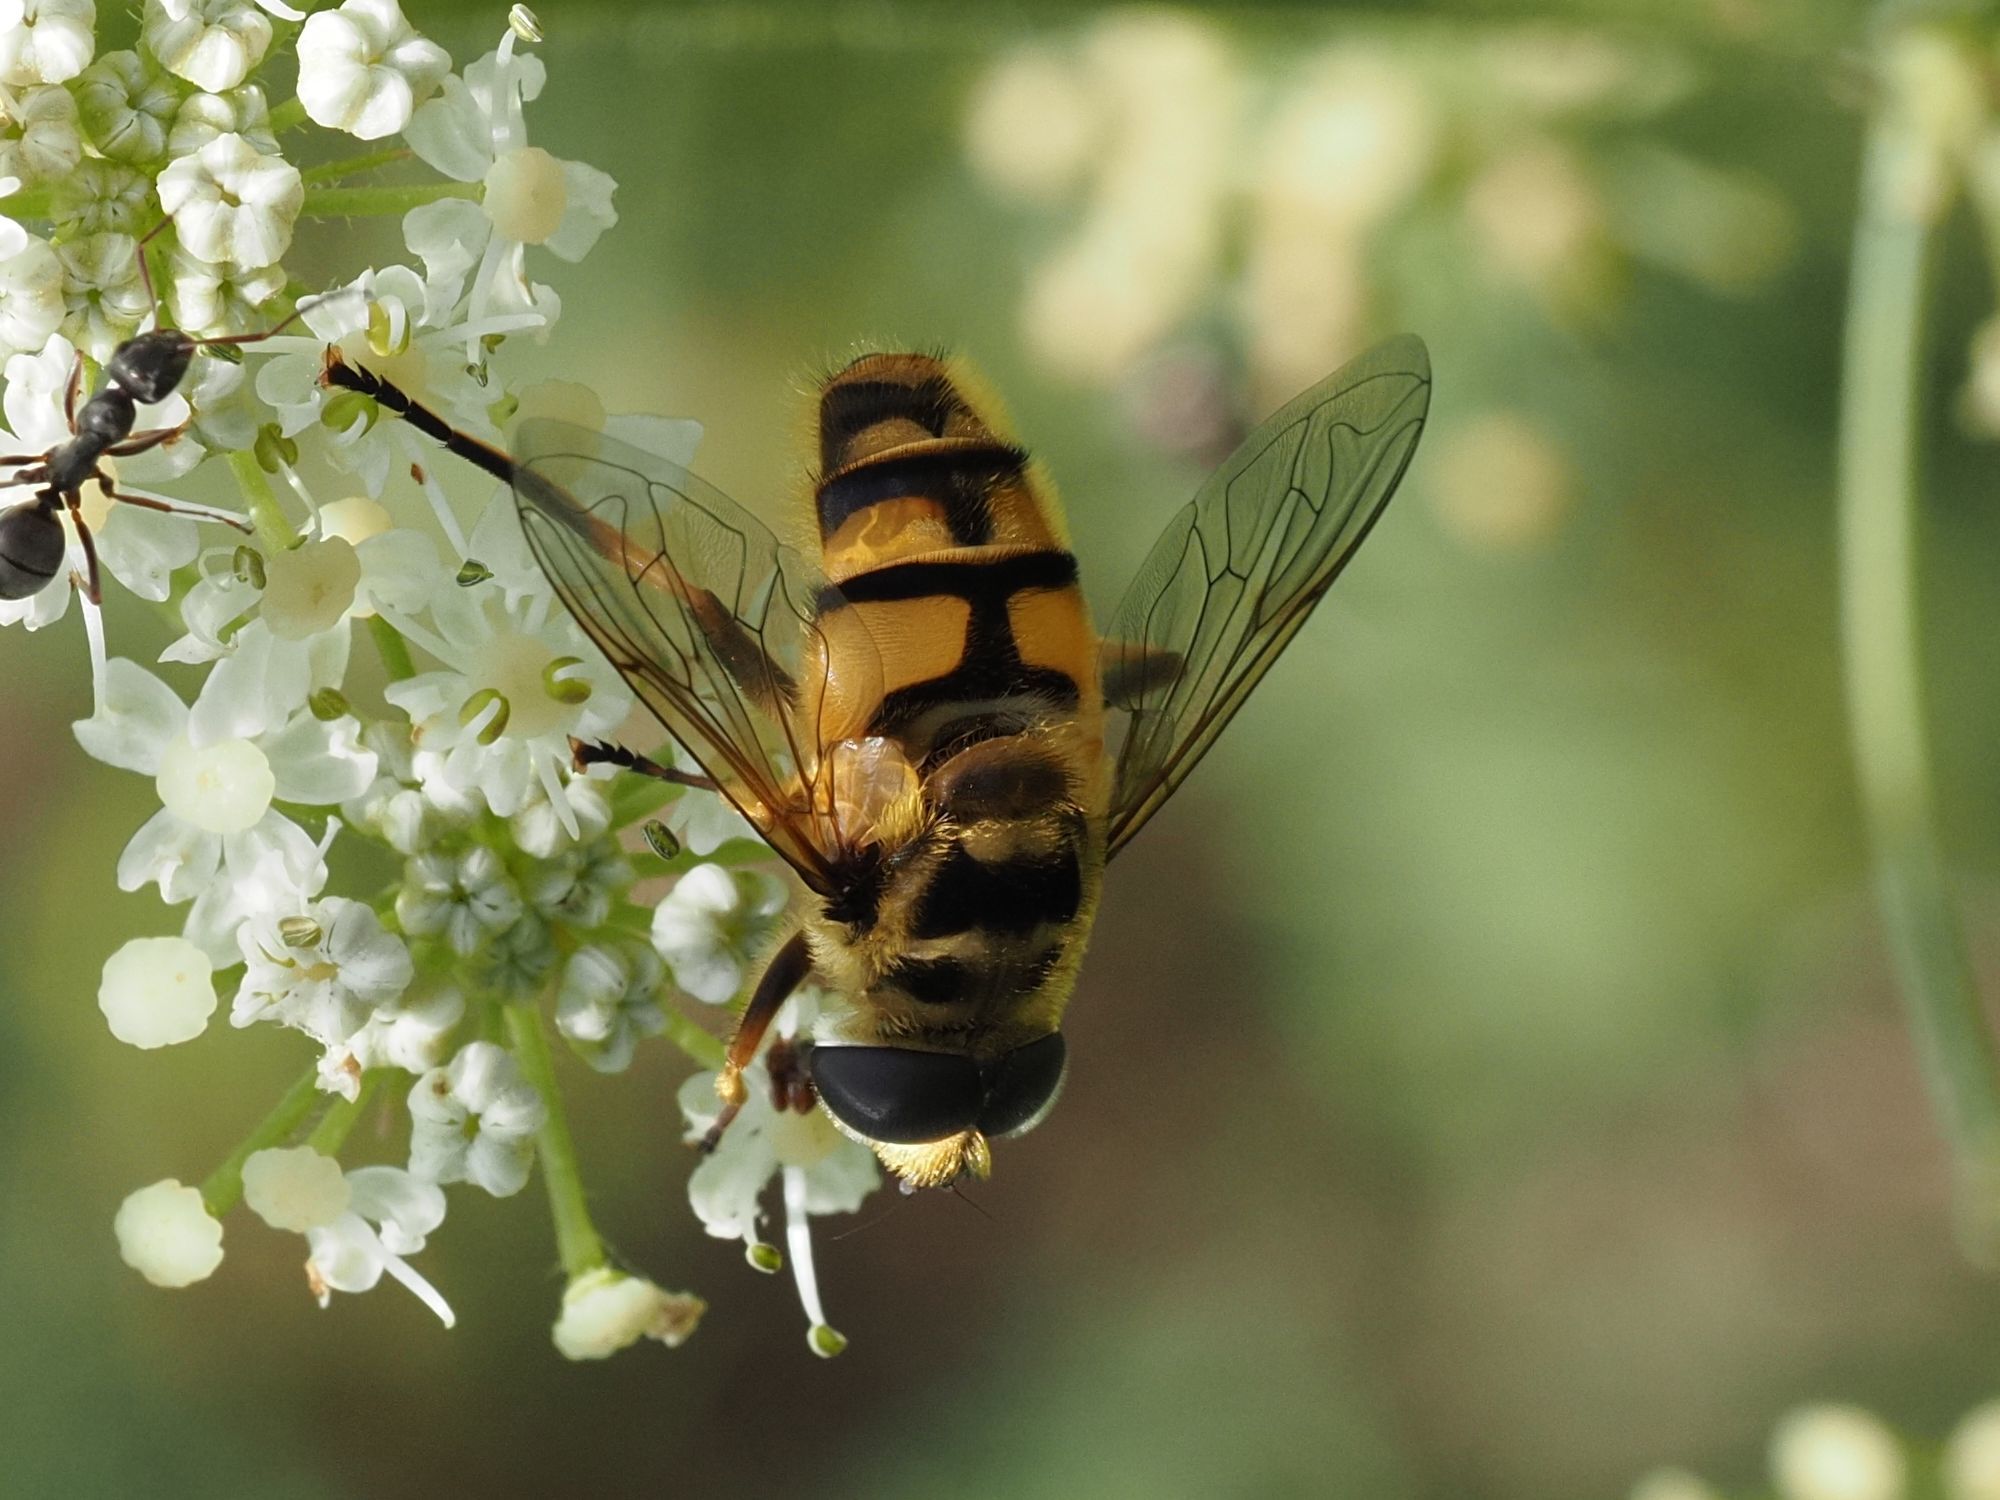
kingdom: Animalia
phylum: Arthropoda
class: Insecta
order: Diptera
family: Syrphidae
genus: Myathropa
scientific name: Myathropa florea
